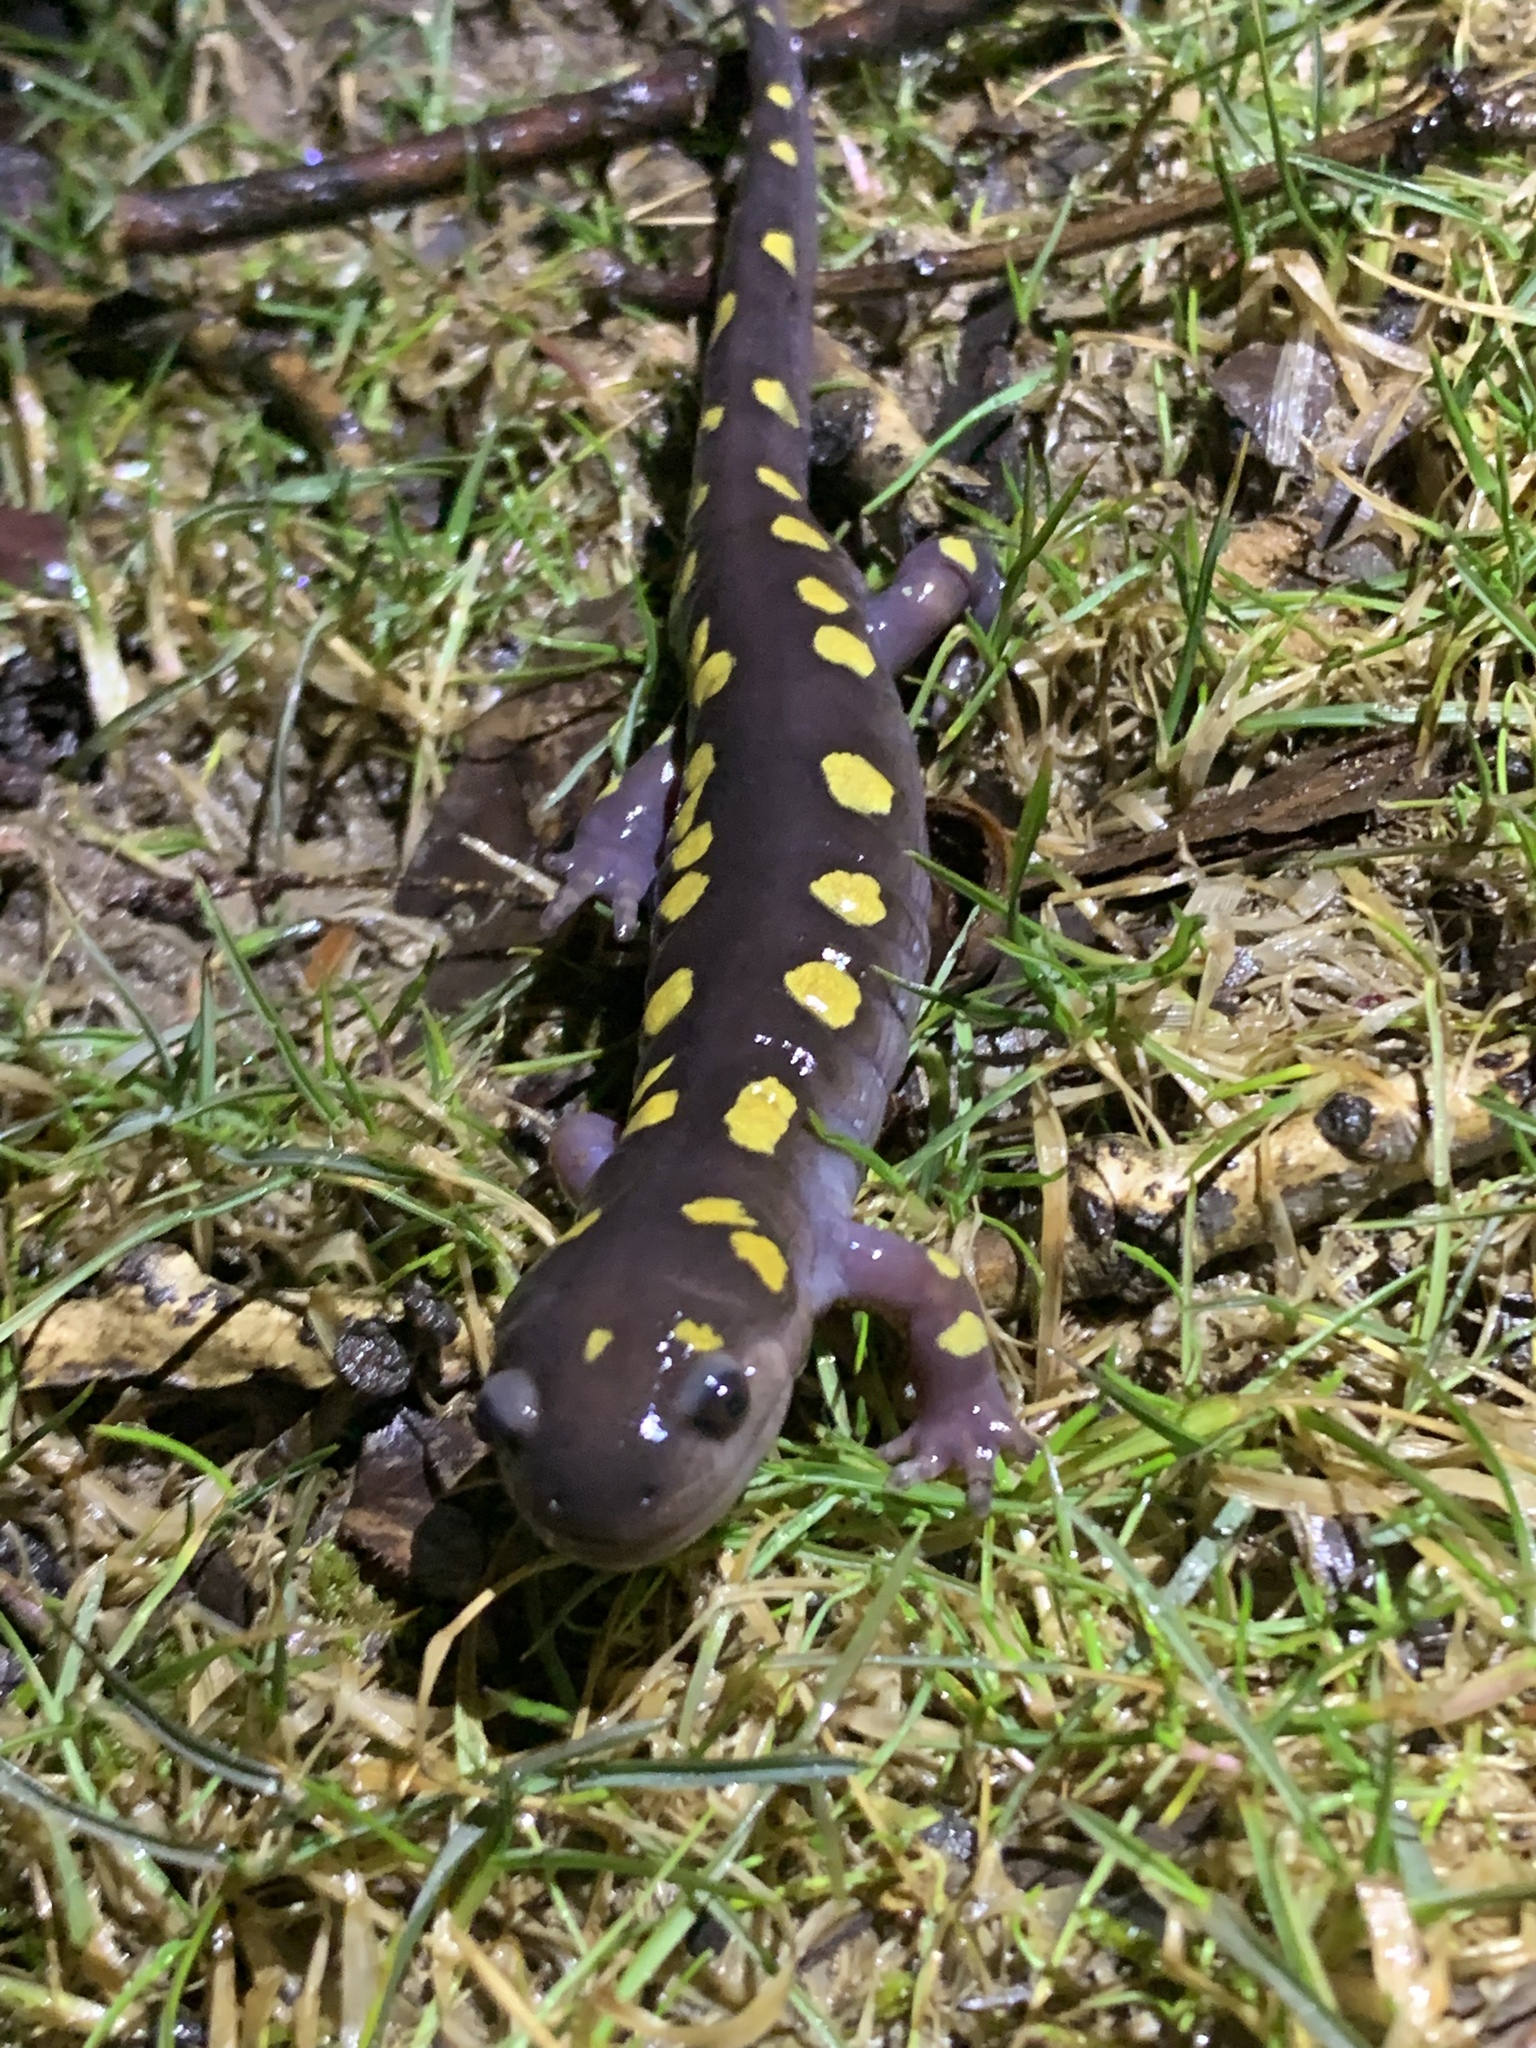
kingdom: Animalia
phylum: Chordata
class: Amphibia
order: Caudata
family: Ambystomatidae
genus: Ambystoma
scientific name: Ambystoma maculatum
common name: Spotted salamander
